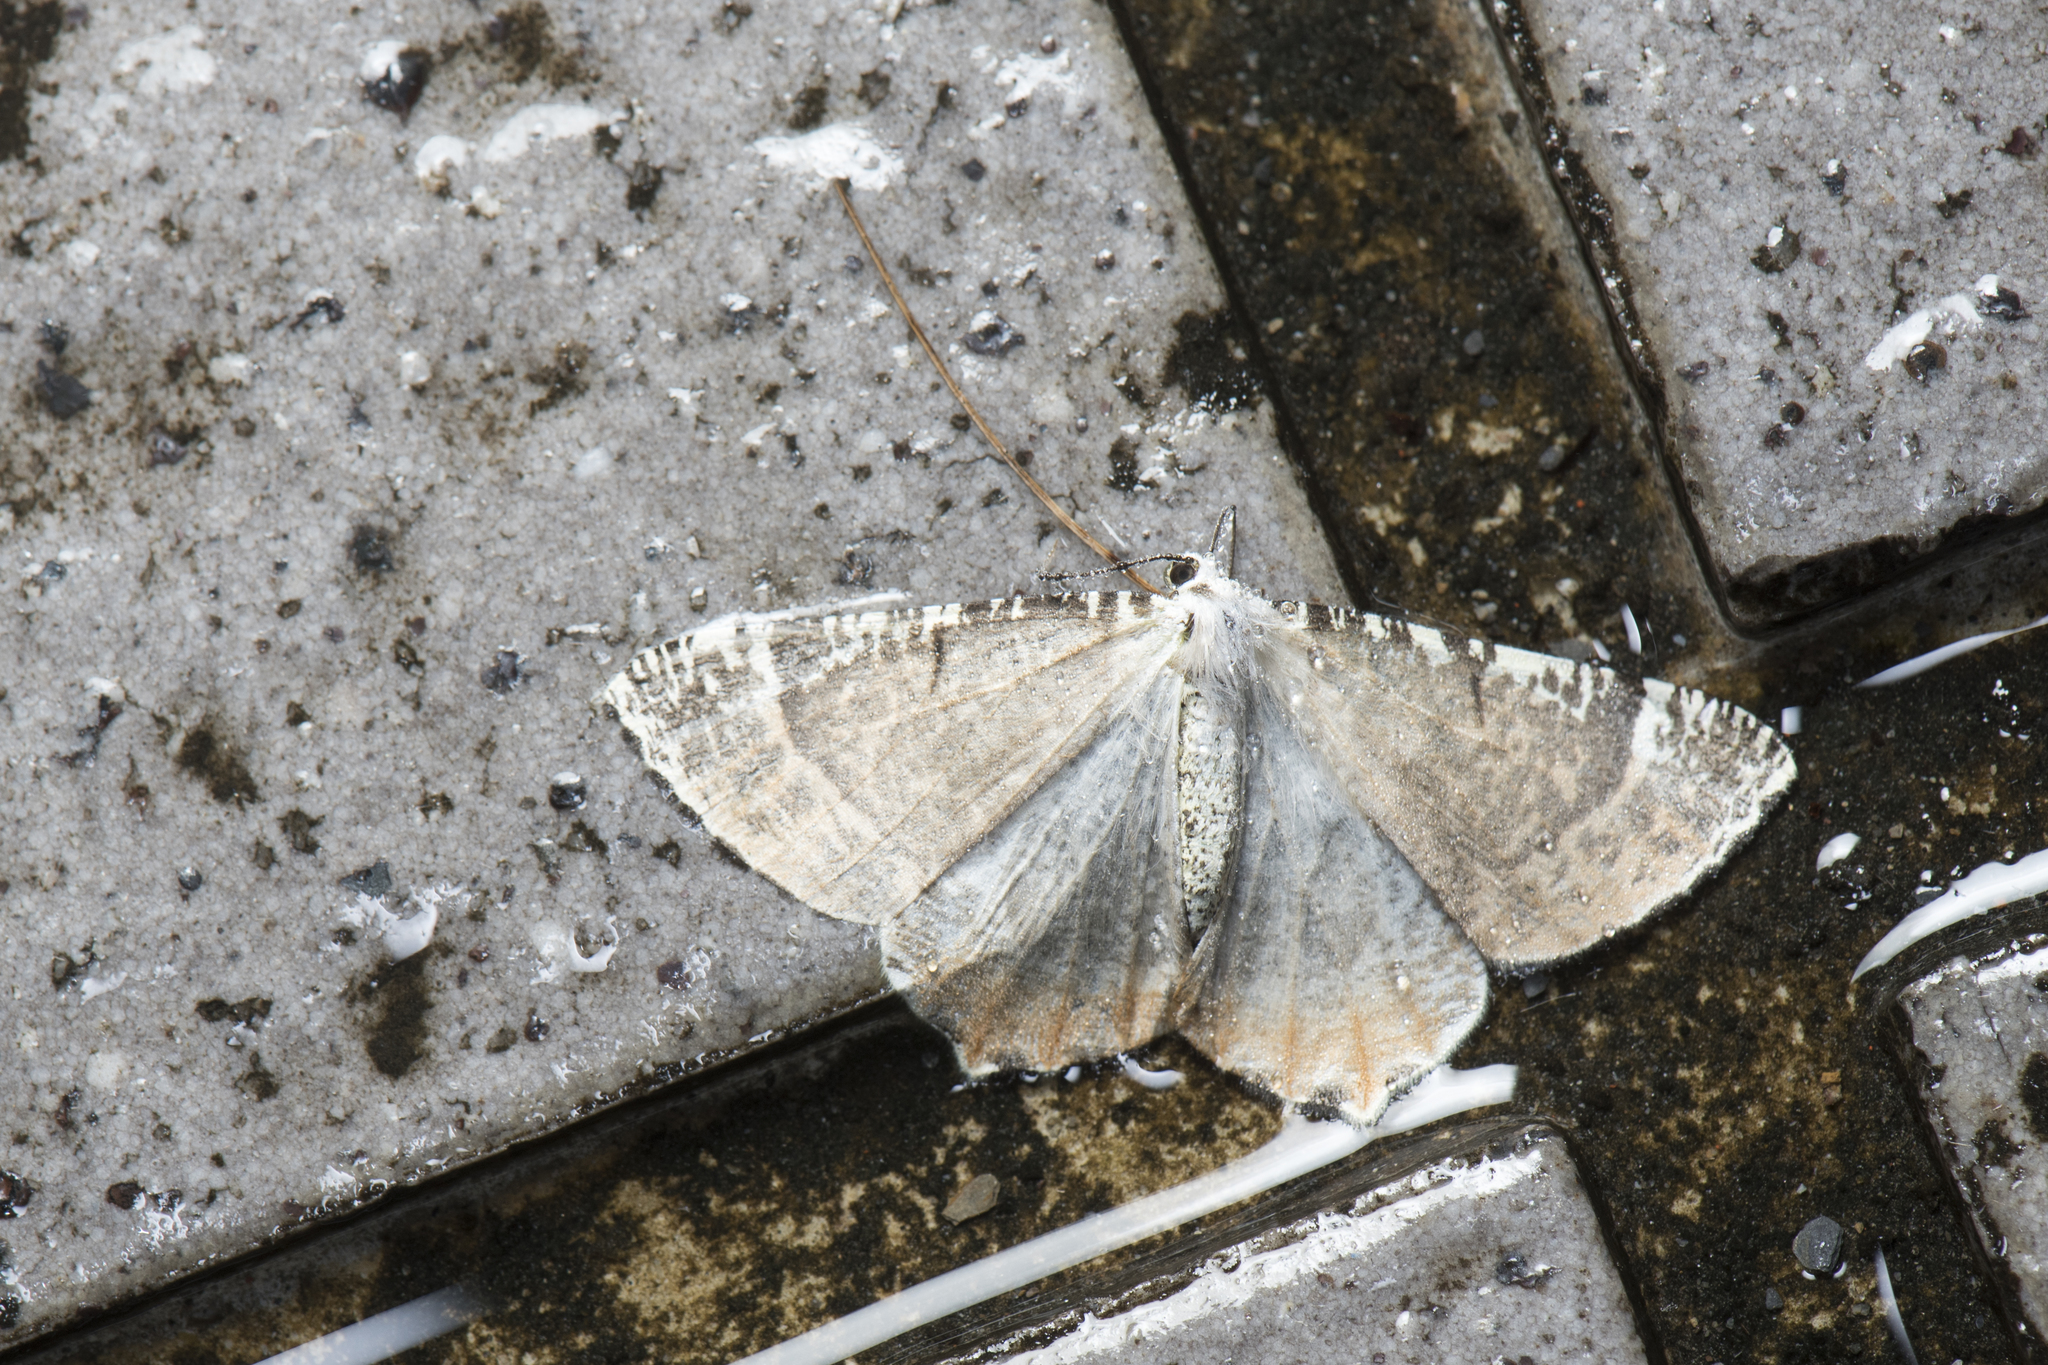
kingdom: Animalia
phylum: Arthropoda
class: Insecta
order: Lepidoptera
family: Geometridae
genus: Ourapteryx
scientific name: Ourapteryx flavovirens
